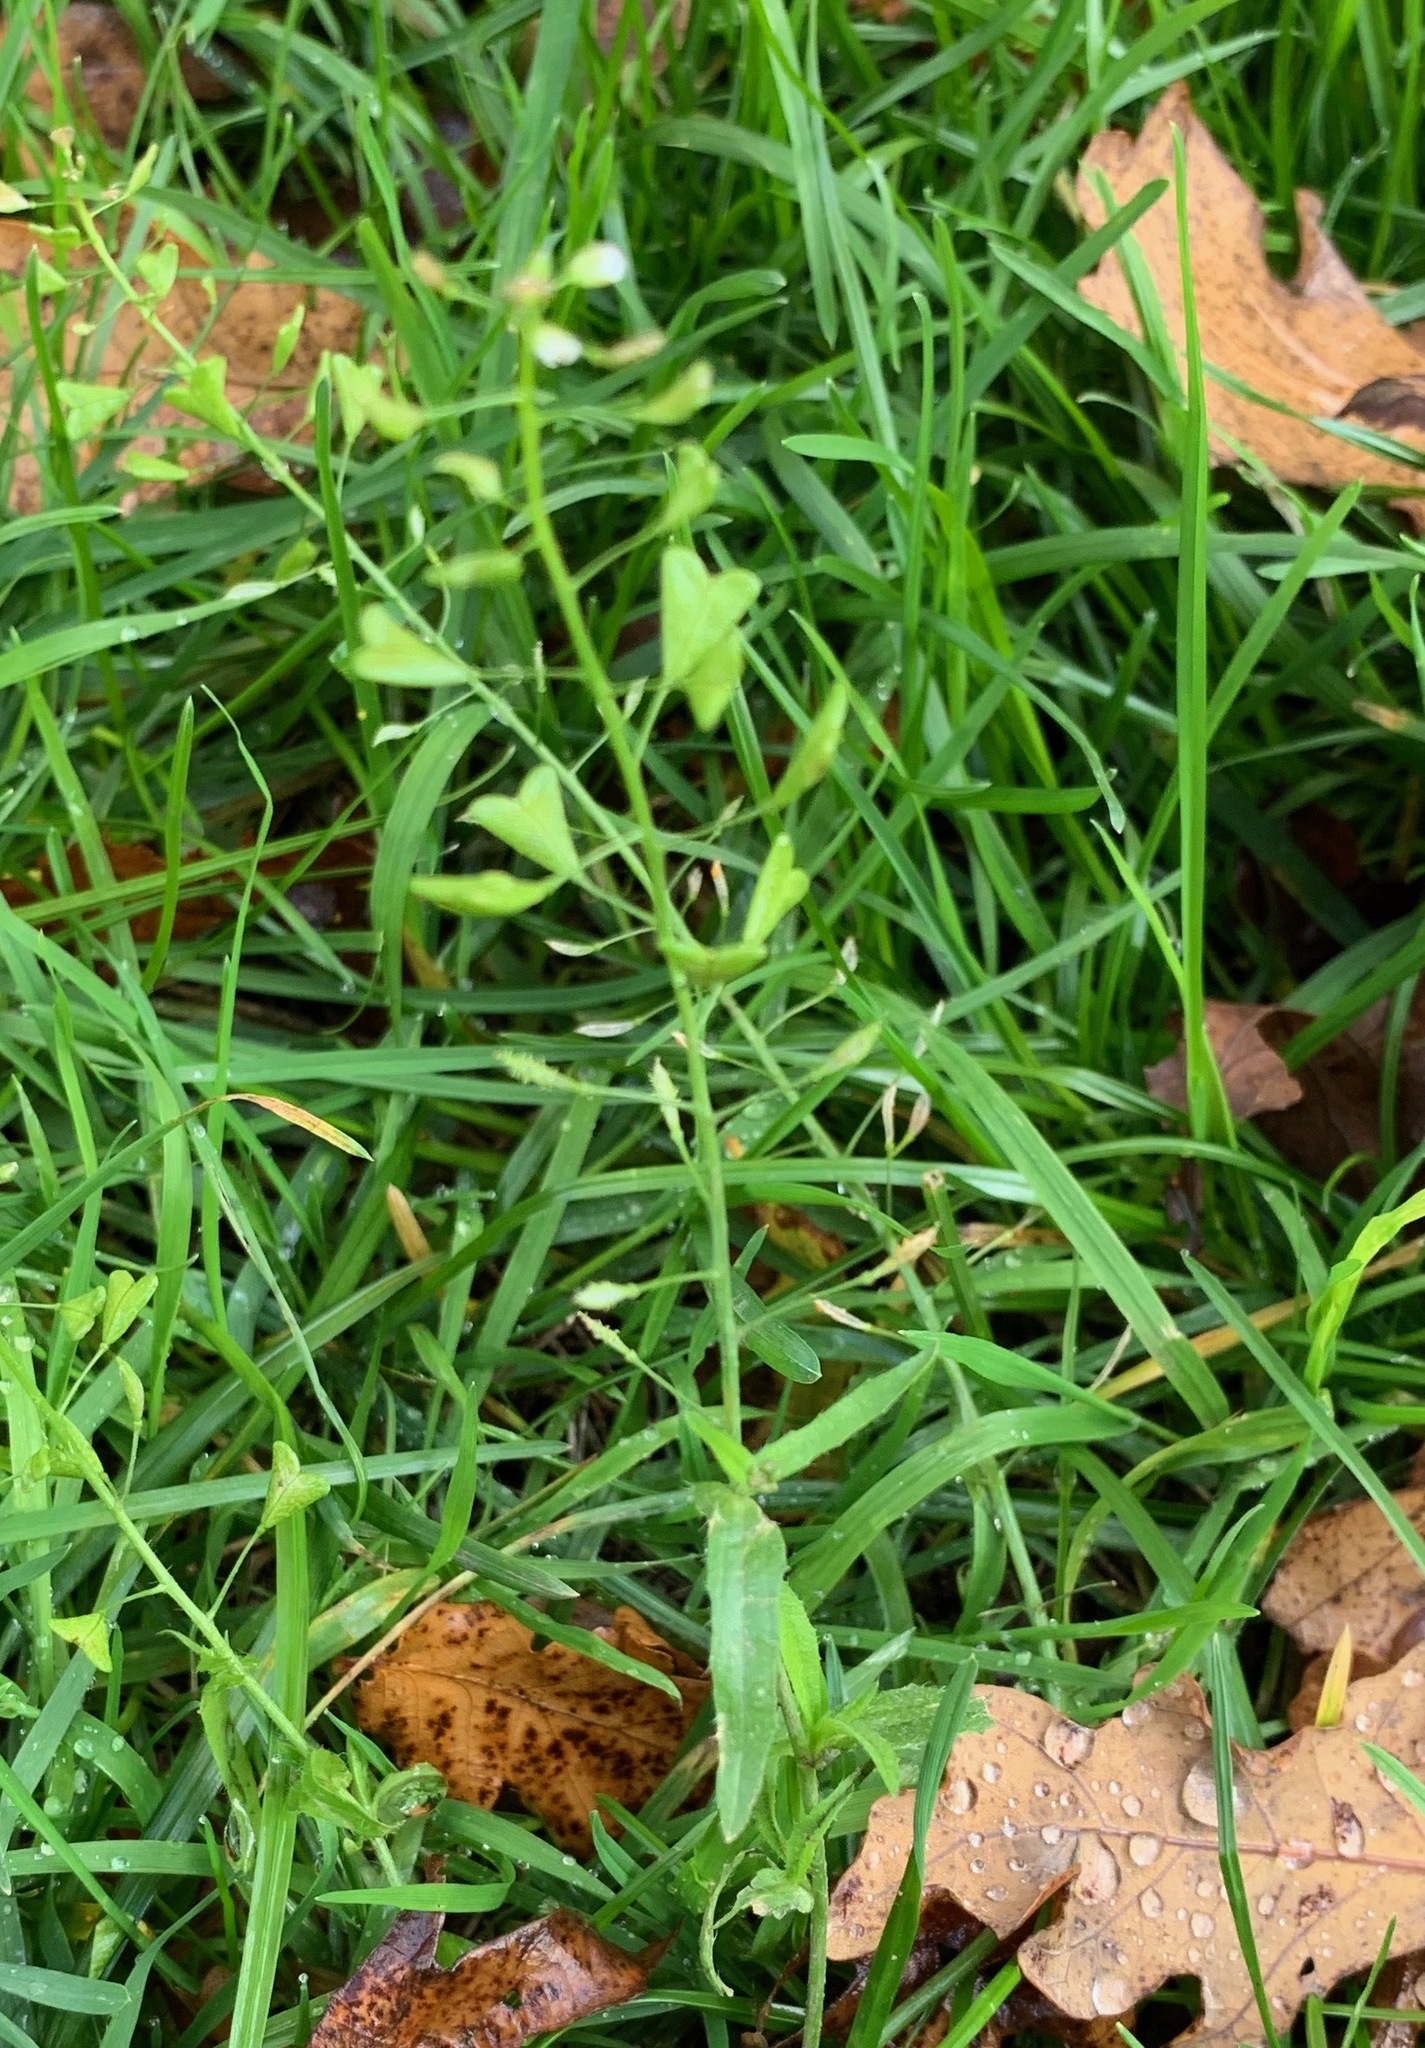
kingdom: Plantae
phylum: Tracheophyta
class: Magnoliopsida
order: Brassicales
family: Brassicaceae
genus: Capsella
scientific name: Capsella bursa-pastoris
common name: Shepherd's purse
